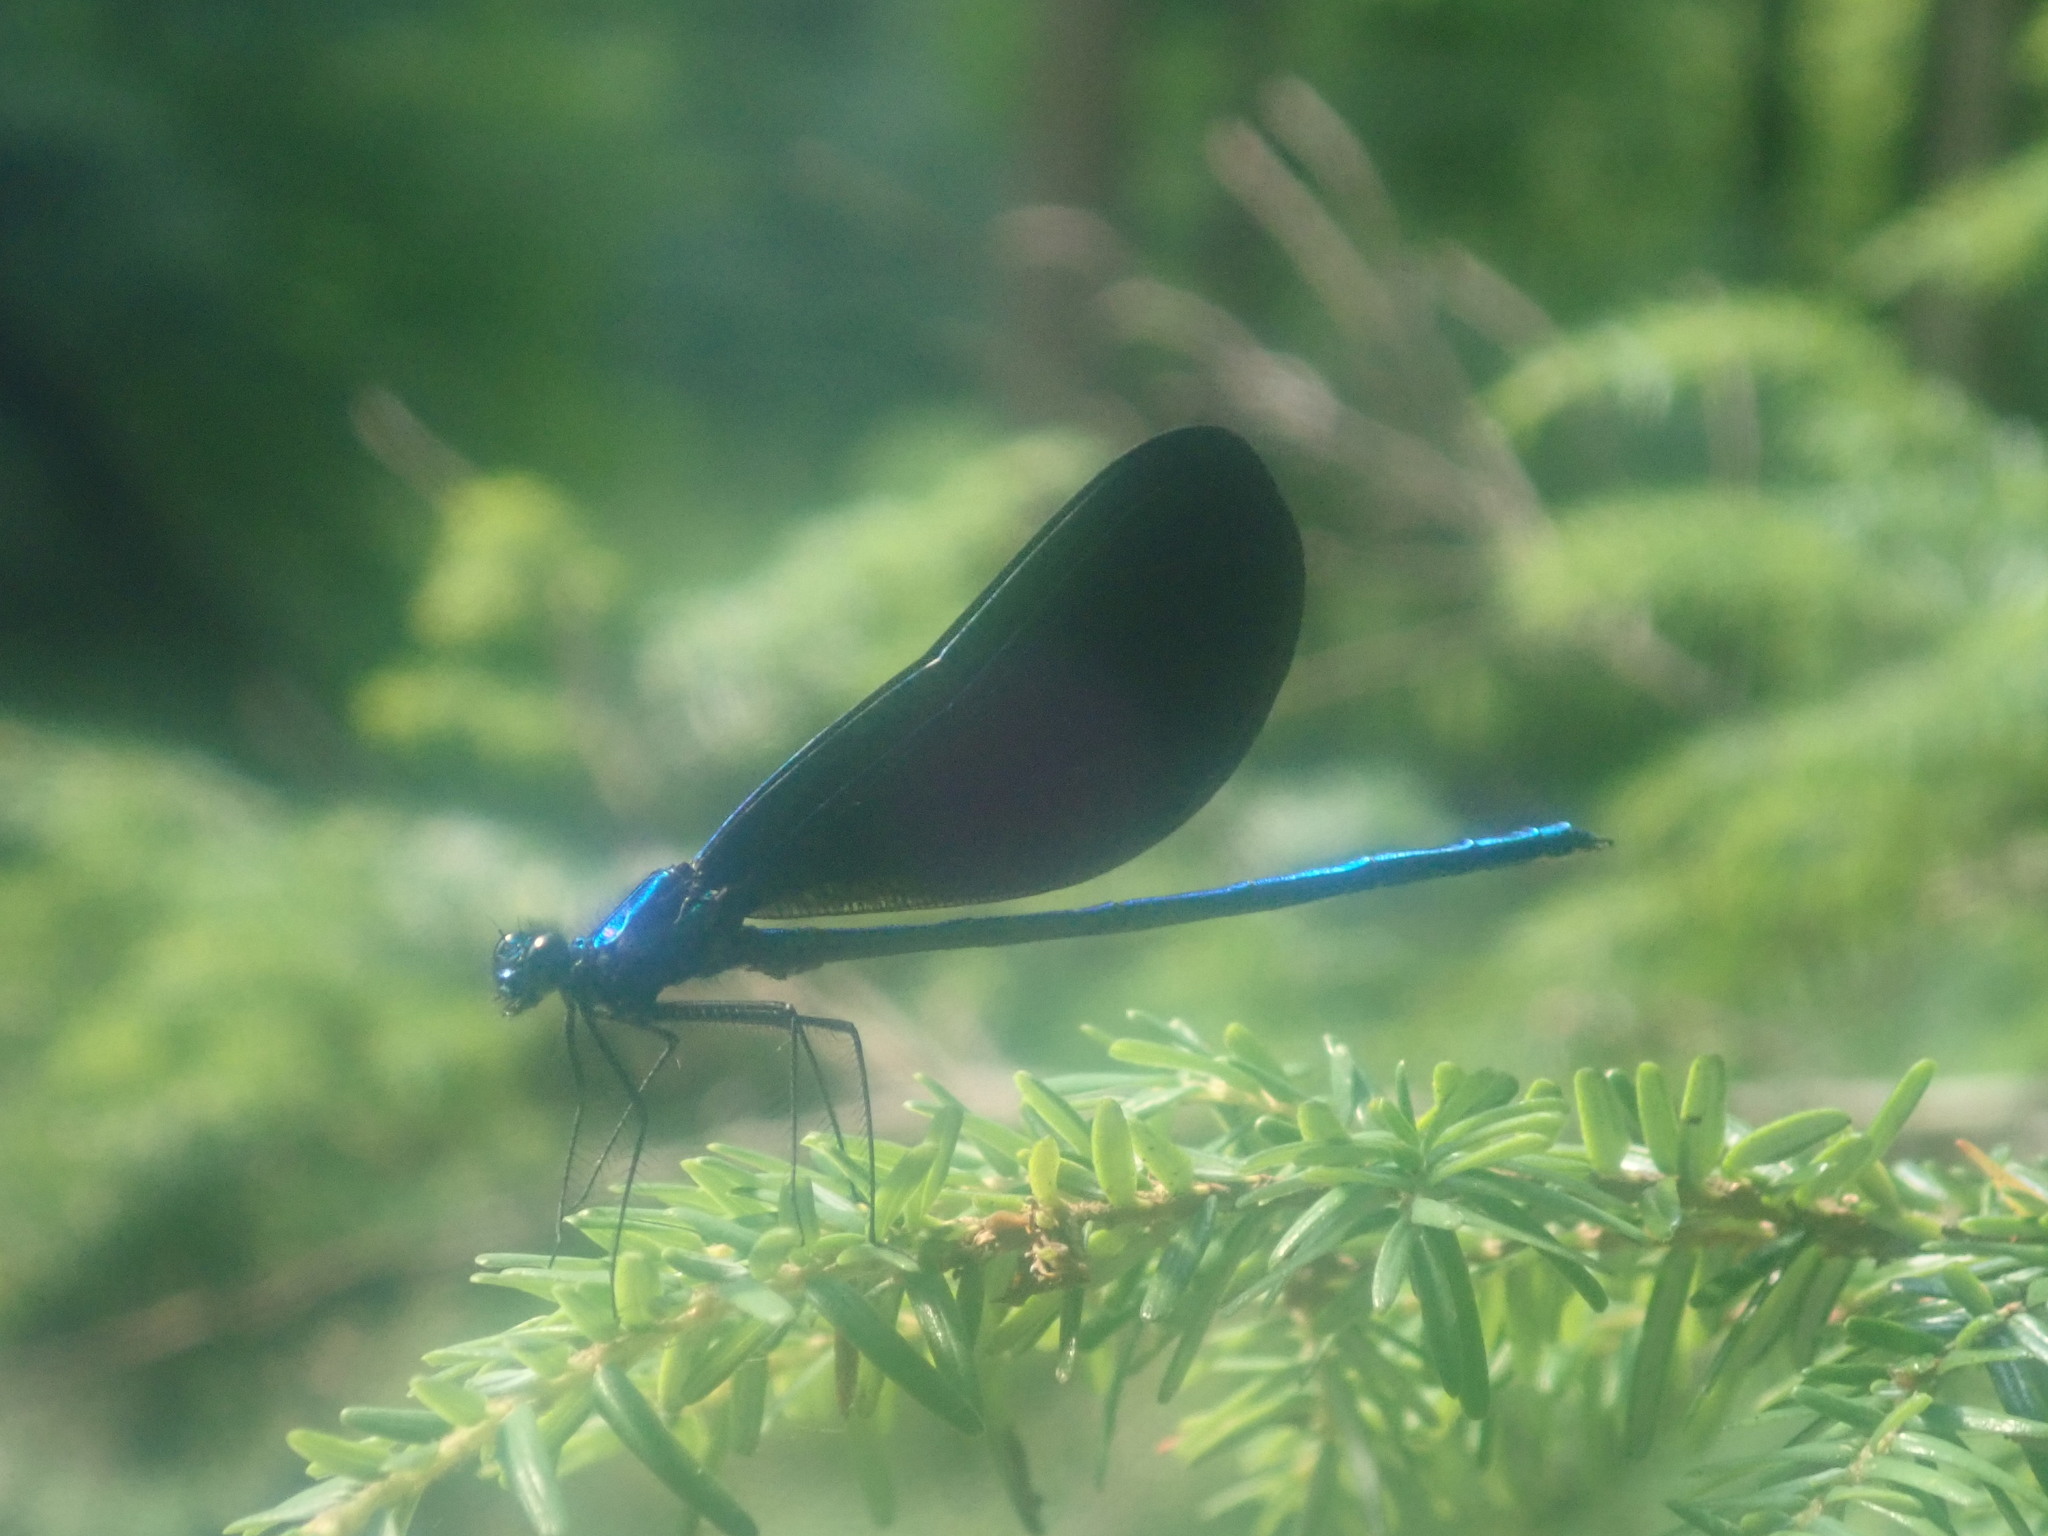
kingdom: Animalia
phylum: Arthropoda
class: Insecta
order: Odonata
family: Calopterygidae
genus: Calopteryx
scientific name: Calopteryx maculata
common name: Ebony jewelwing
